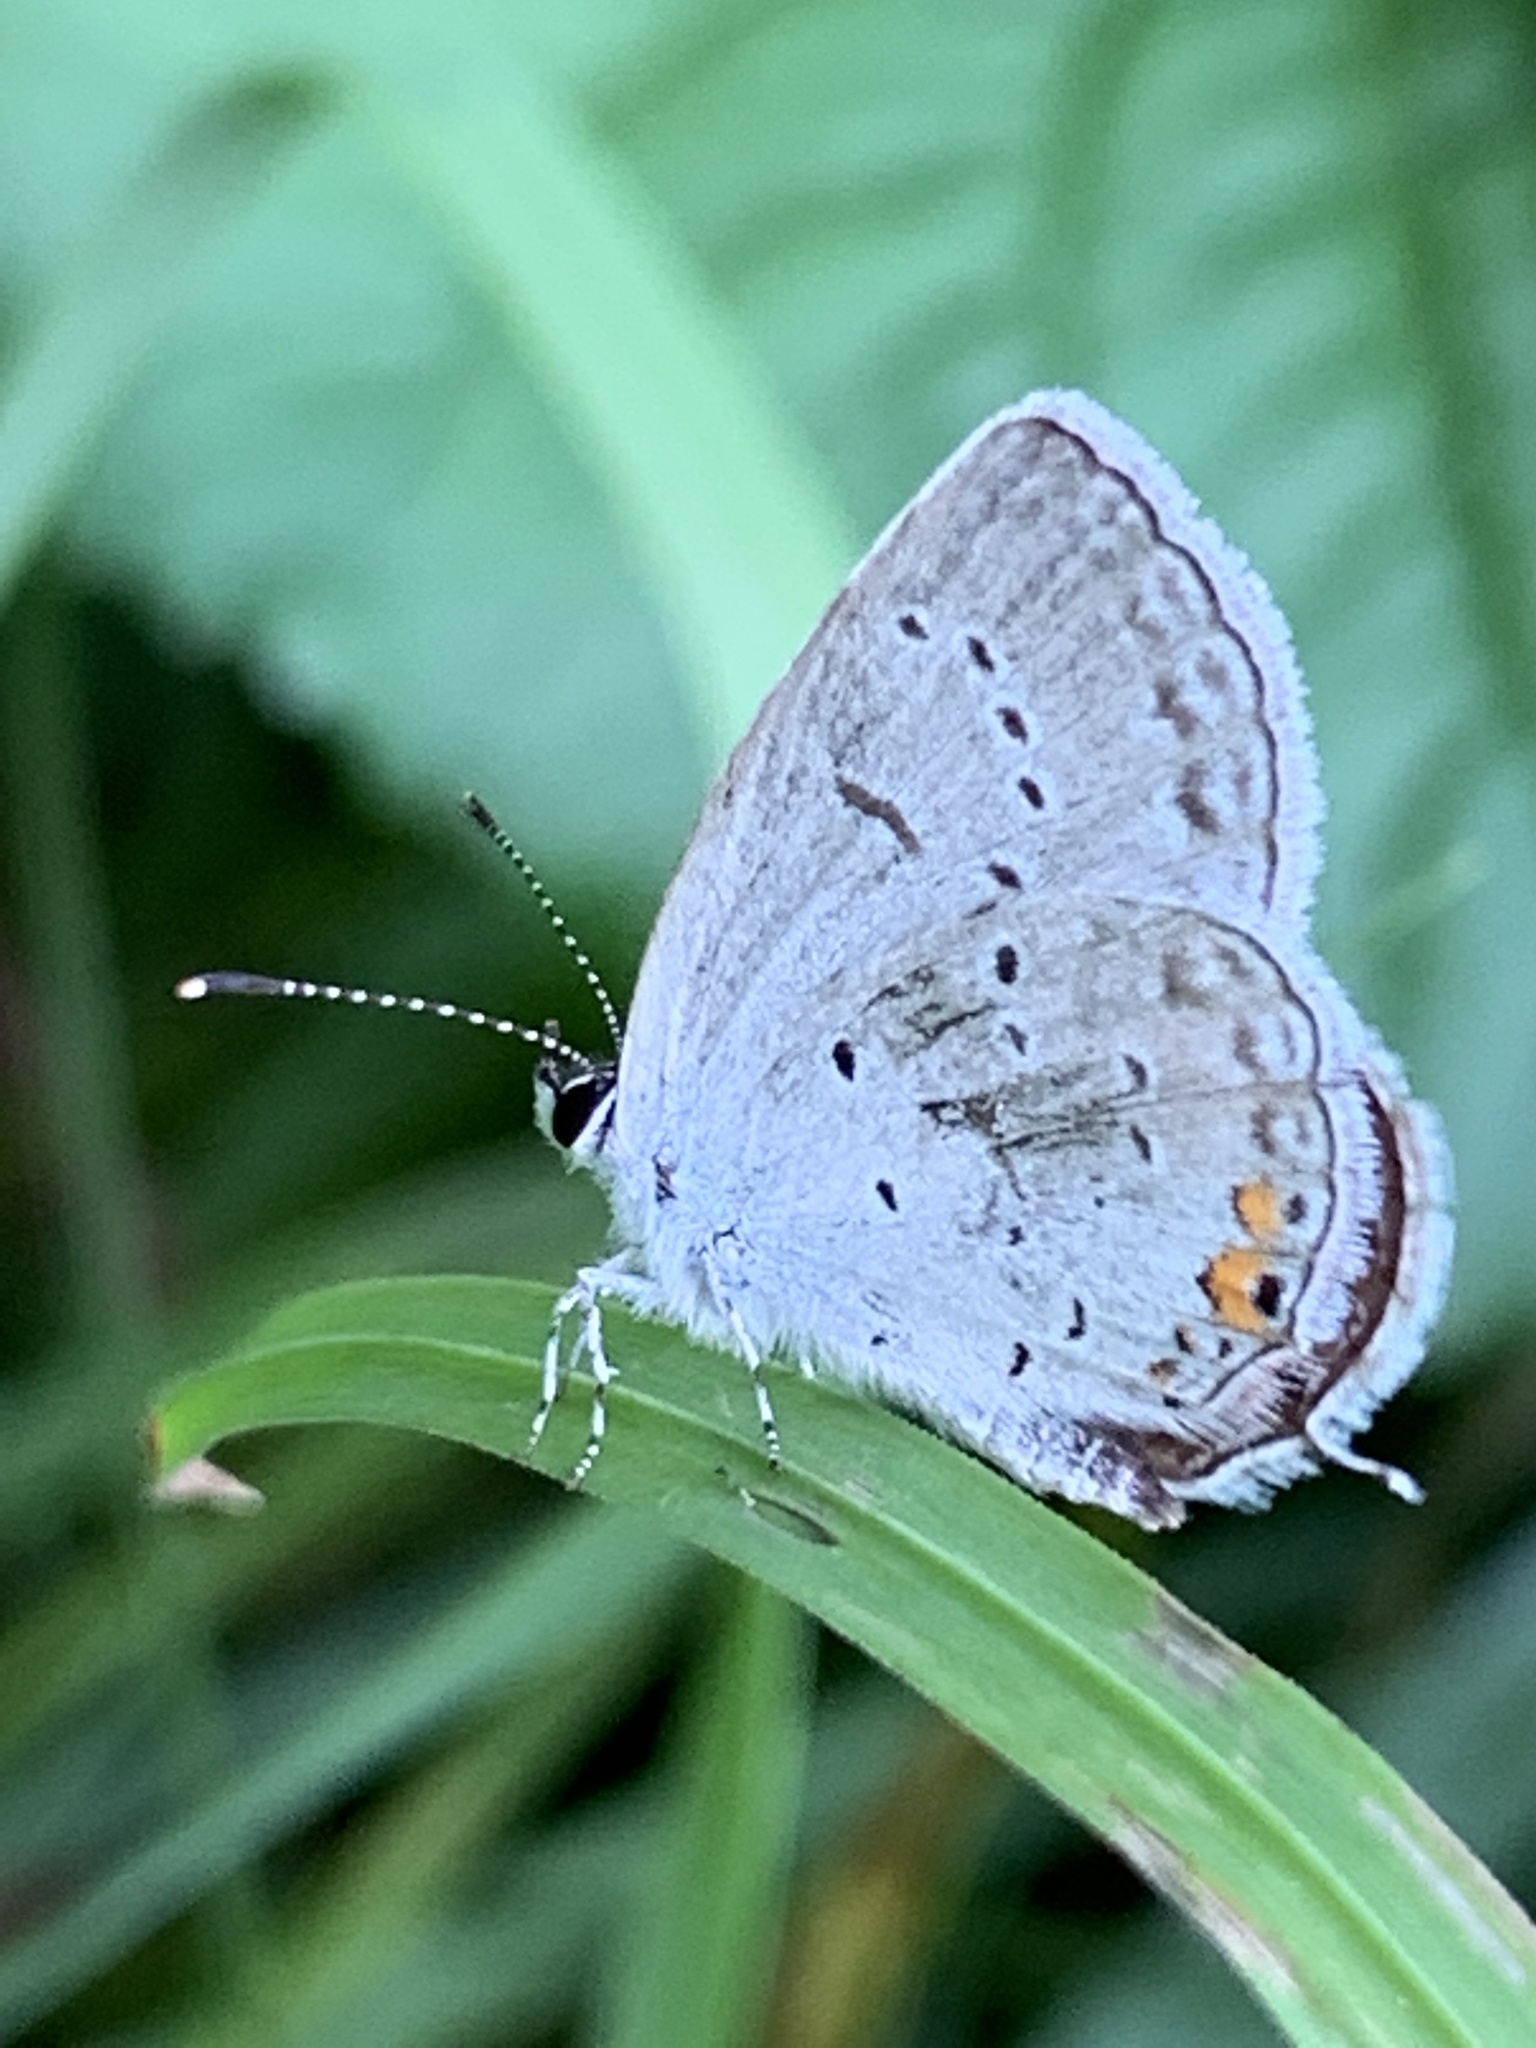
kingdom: Animalia
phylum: Arthropoda
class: Insecta
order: Lepidoptera
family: Lycaenidae
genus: Elkalyce
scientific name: Elkalyce comyntas
